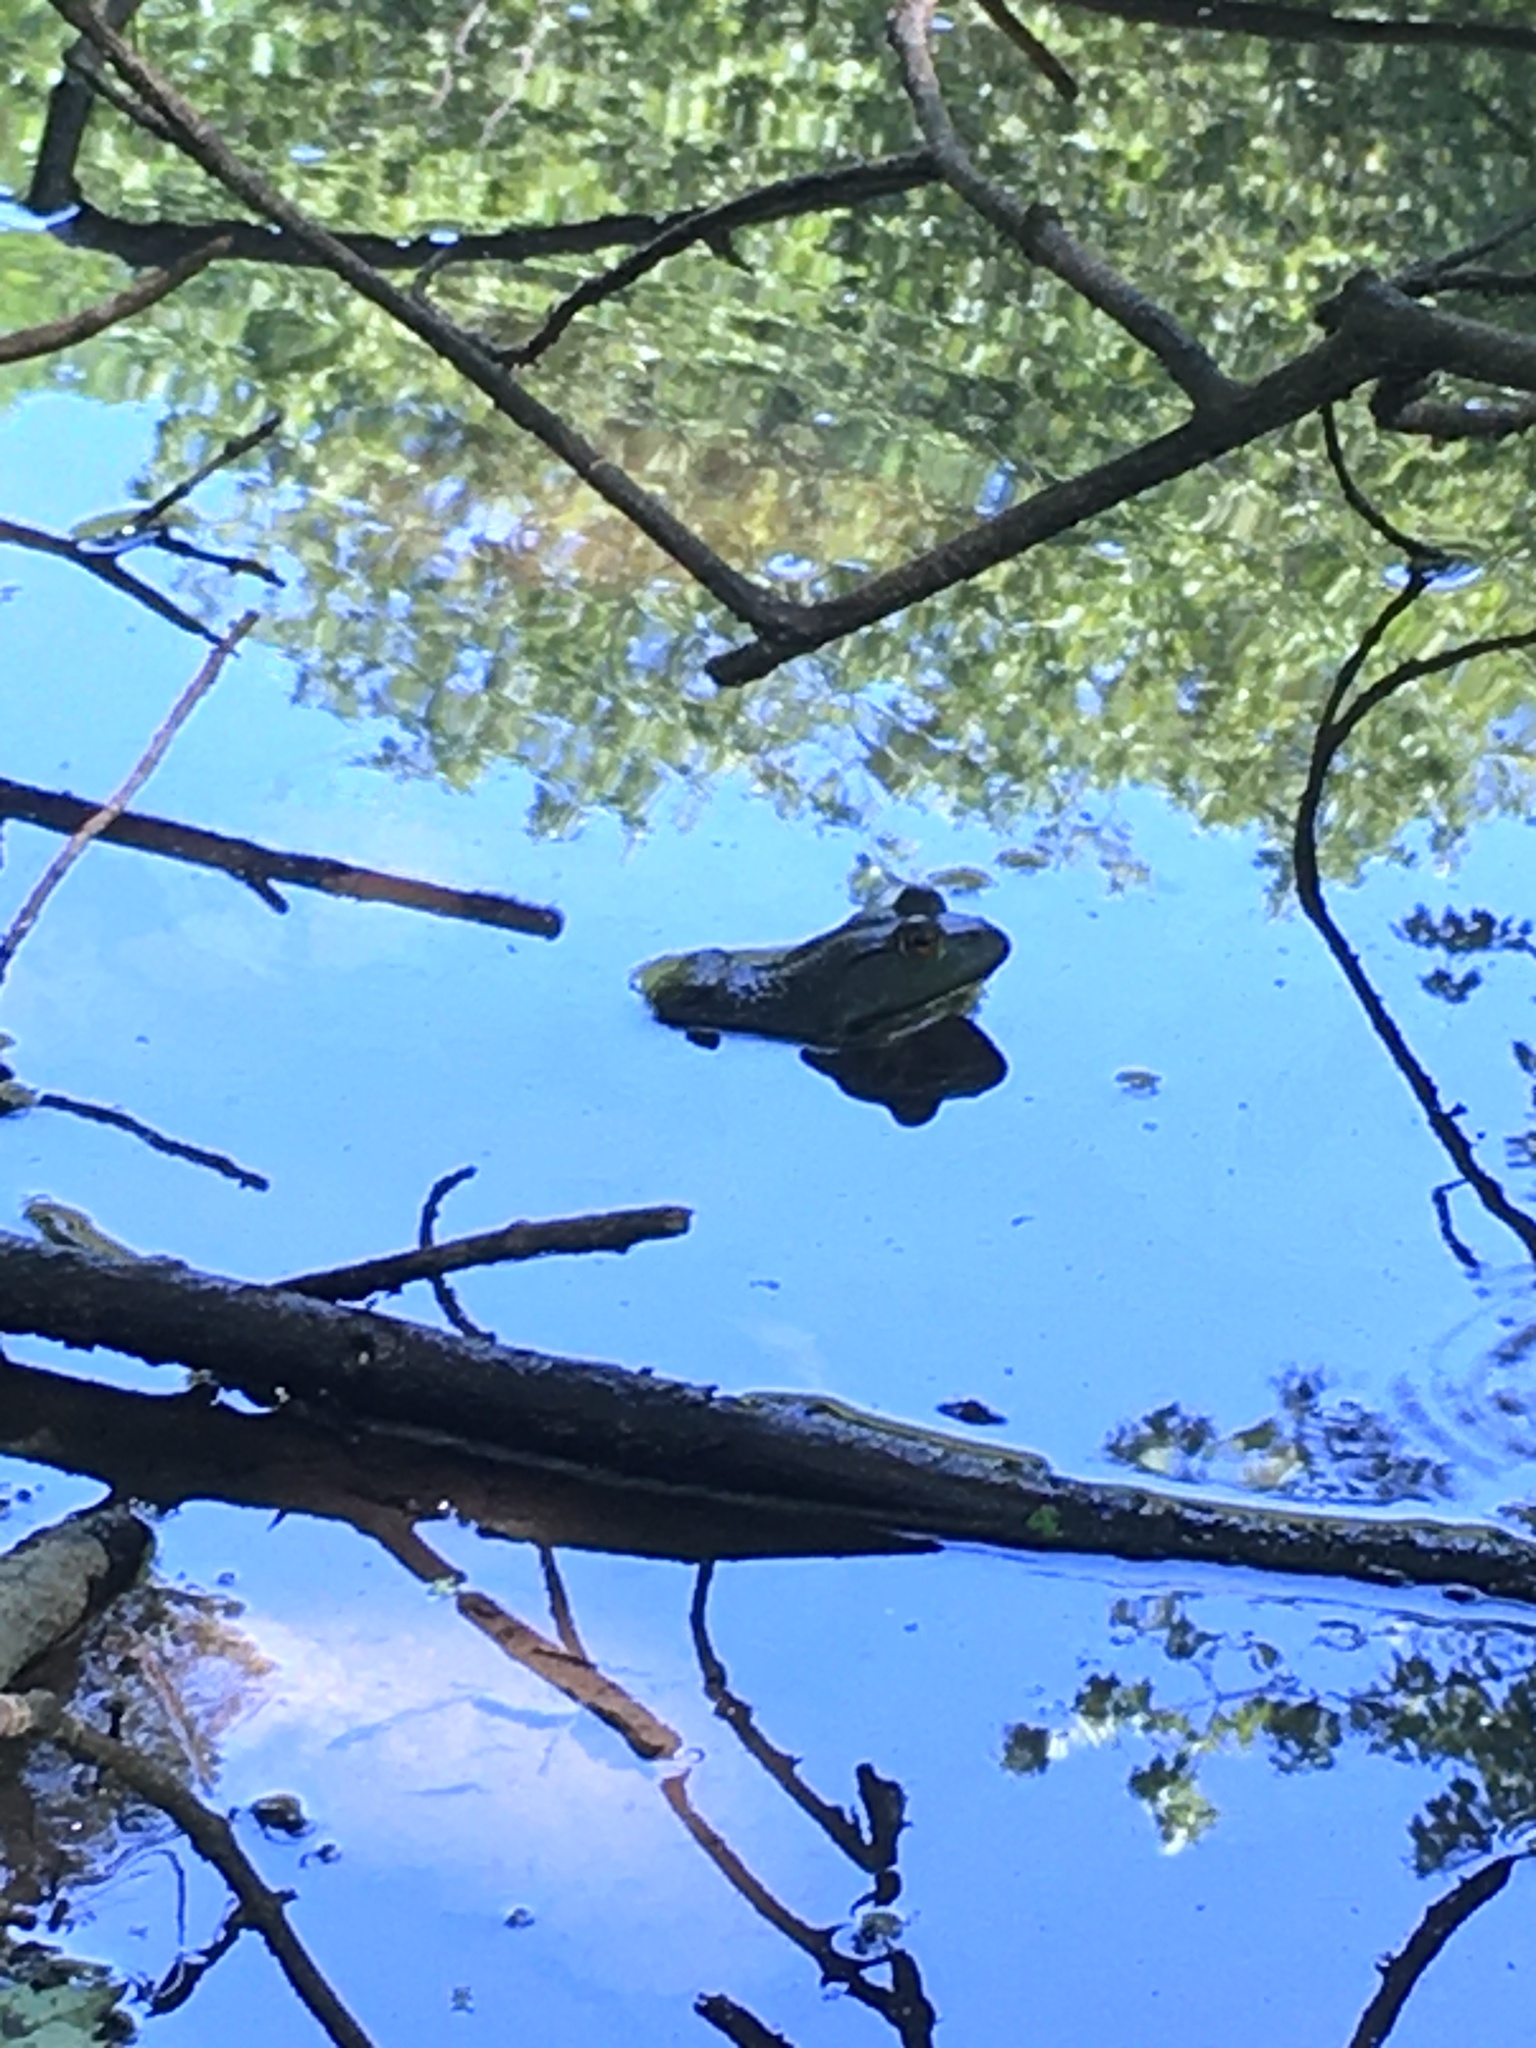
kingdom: Animalia
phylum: Chordata
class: Amphibia
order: Anura
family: Ranidae
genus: Lithobates
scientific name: Lithobates catesbeianus
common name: American bullfrog
